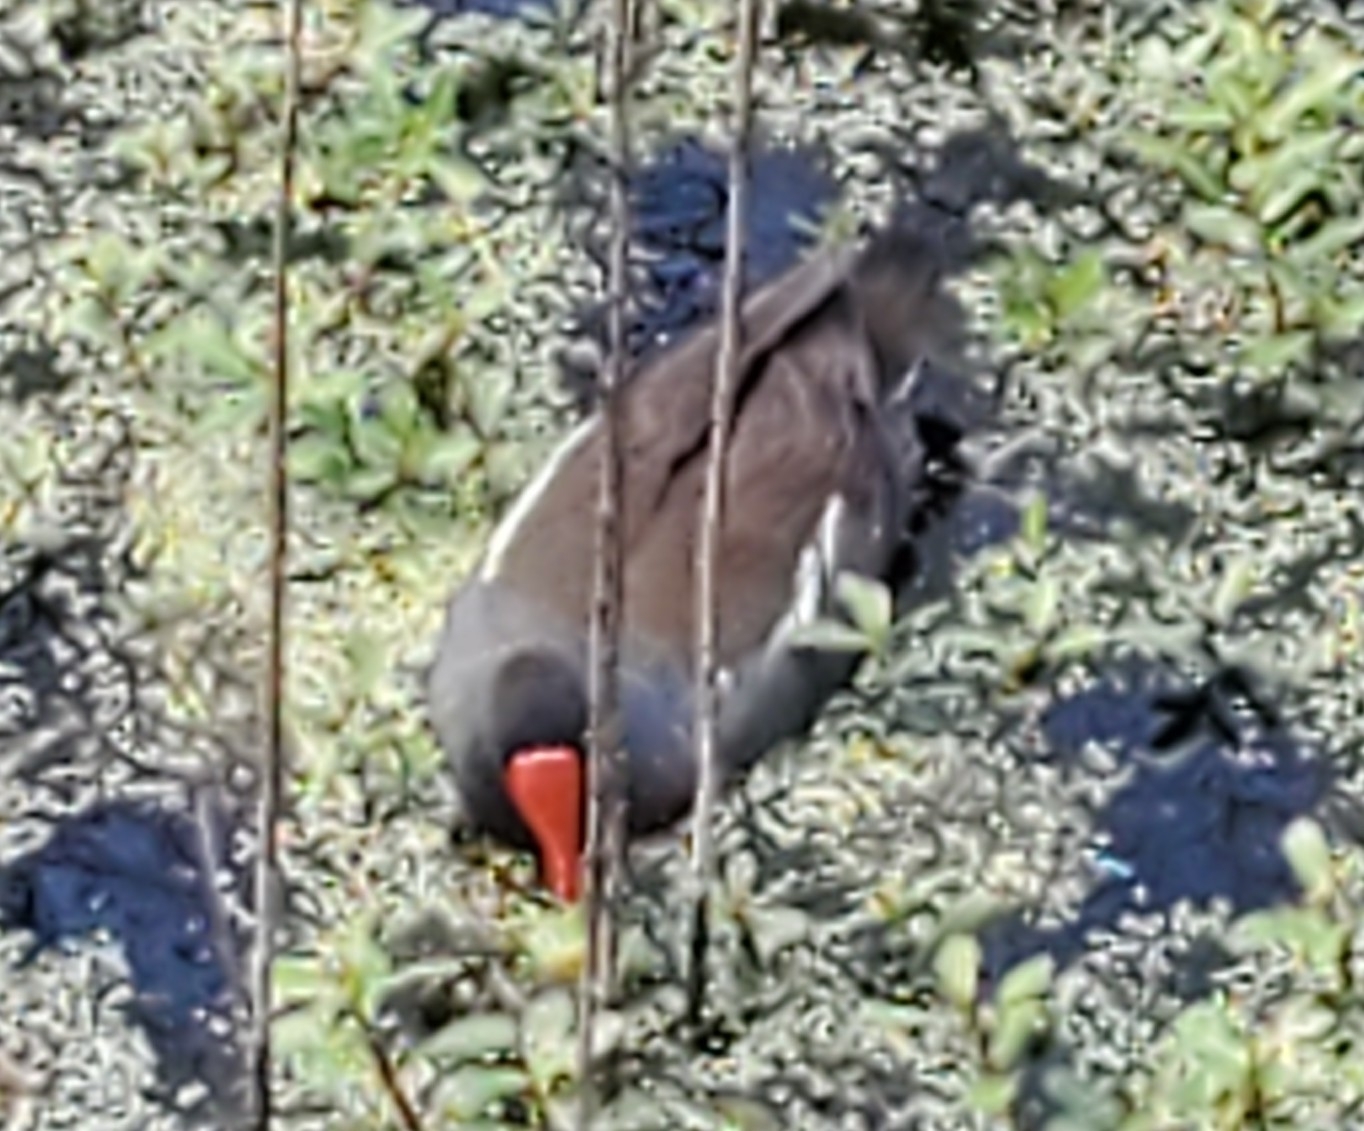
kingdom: Animalia
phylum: Chordata
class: Aves
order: Gruiformes
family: Rallidae
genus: Gallinula
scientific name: Gallinula chloropus
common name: Common moorhen
